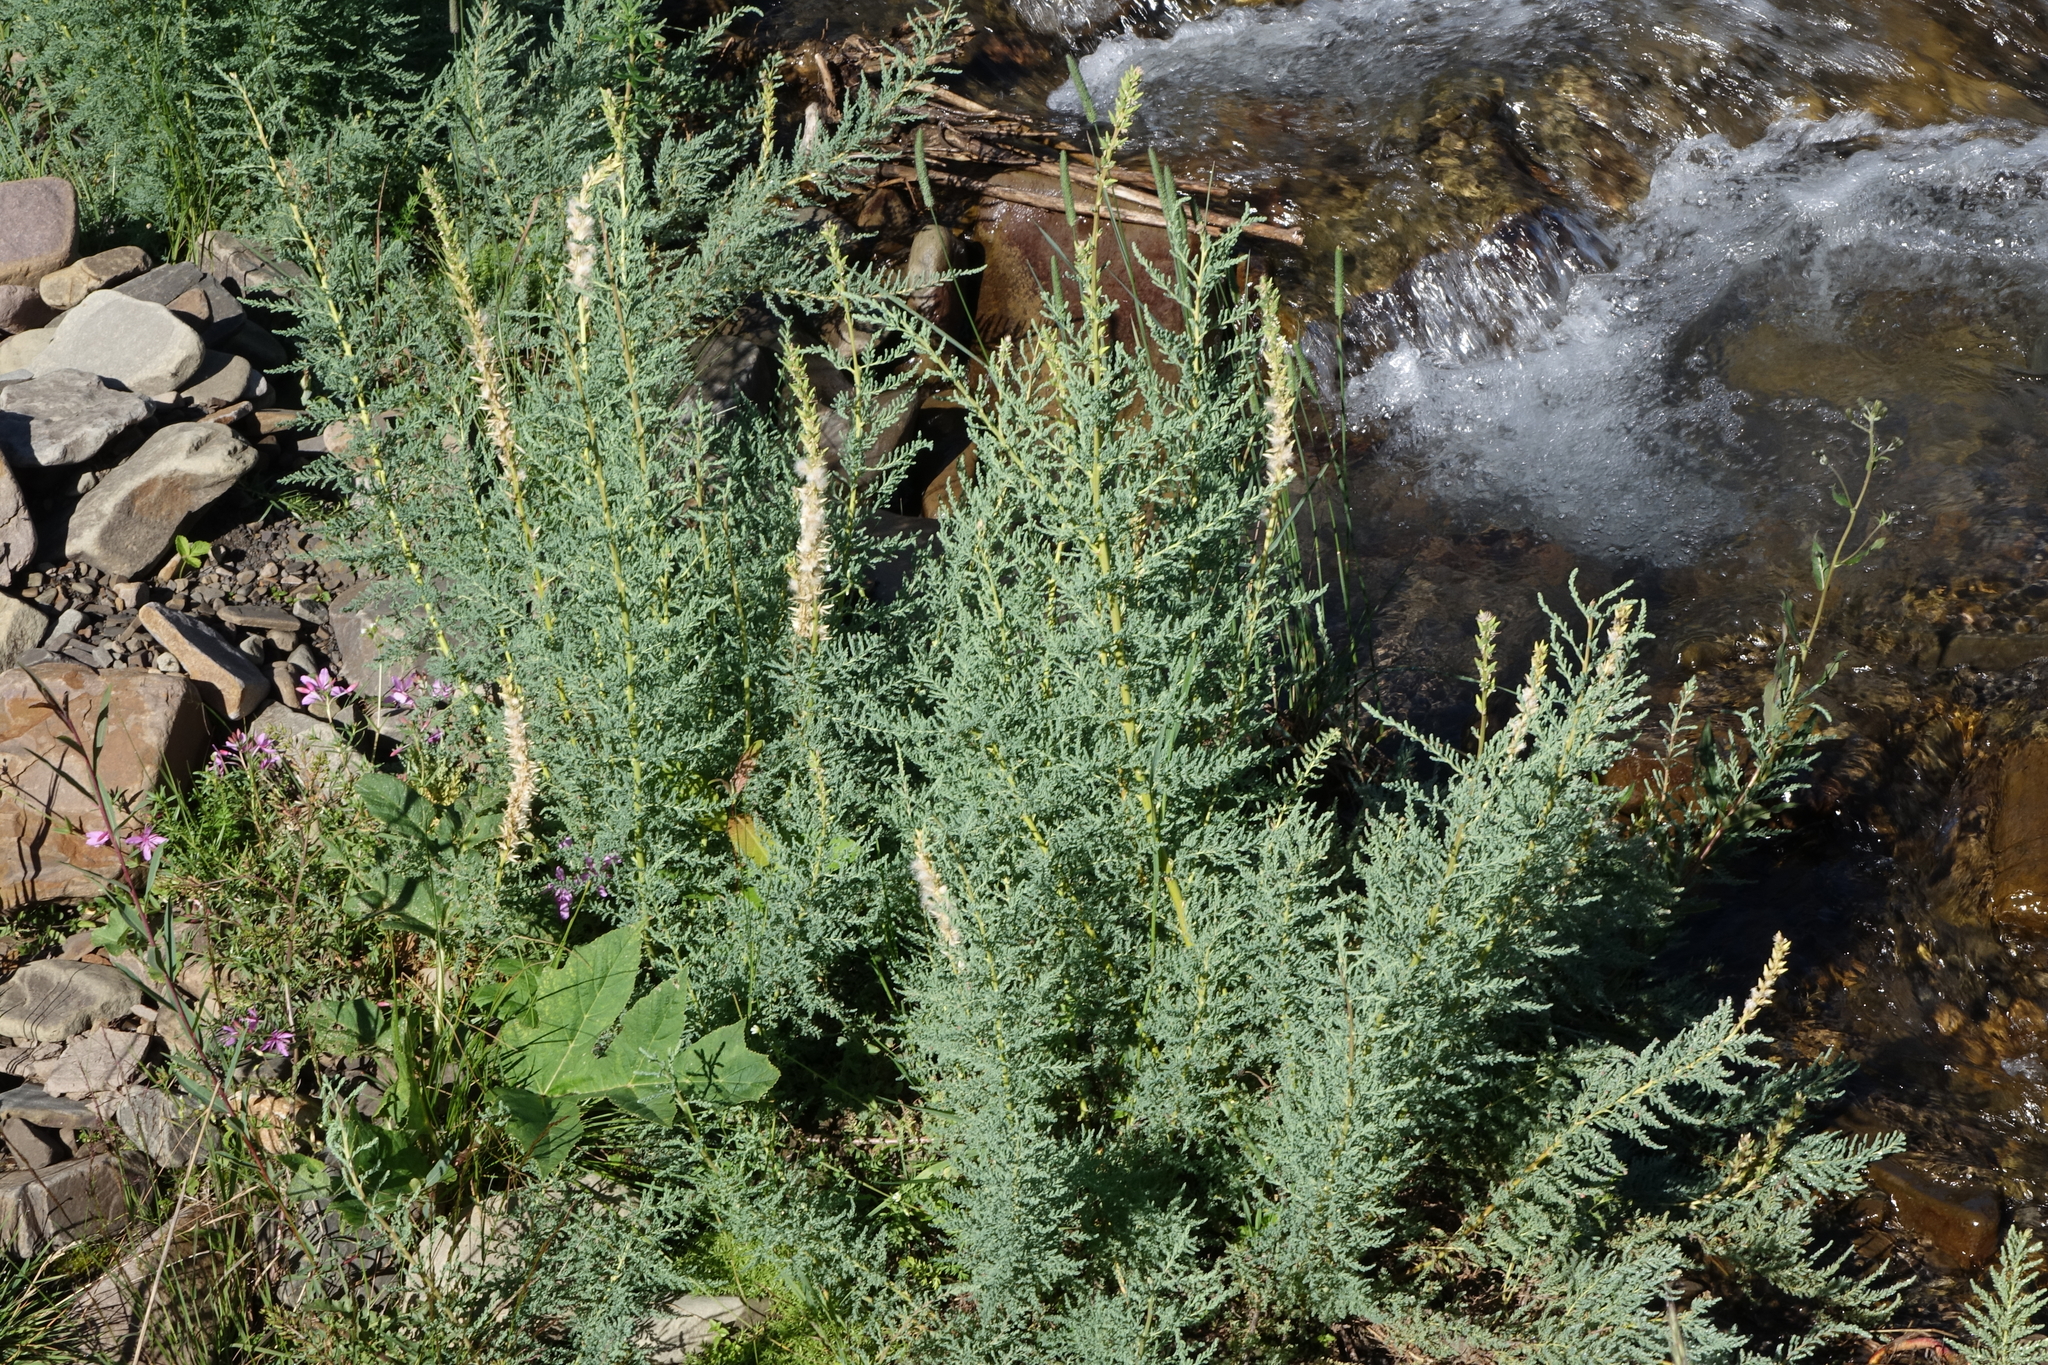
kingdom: Plantae
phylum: Tracheophyta
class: Magnoliopsida
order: Caryophyllales
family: Tamaricaceae
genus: Myricaria
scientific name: Myricaria bracteata
